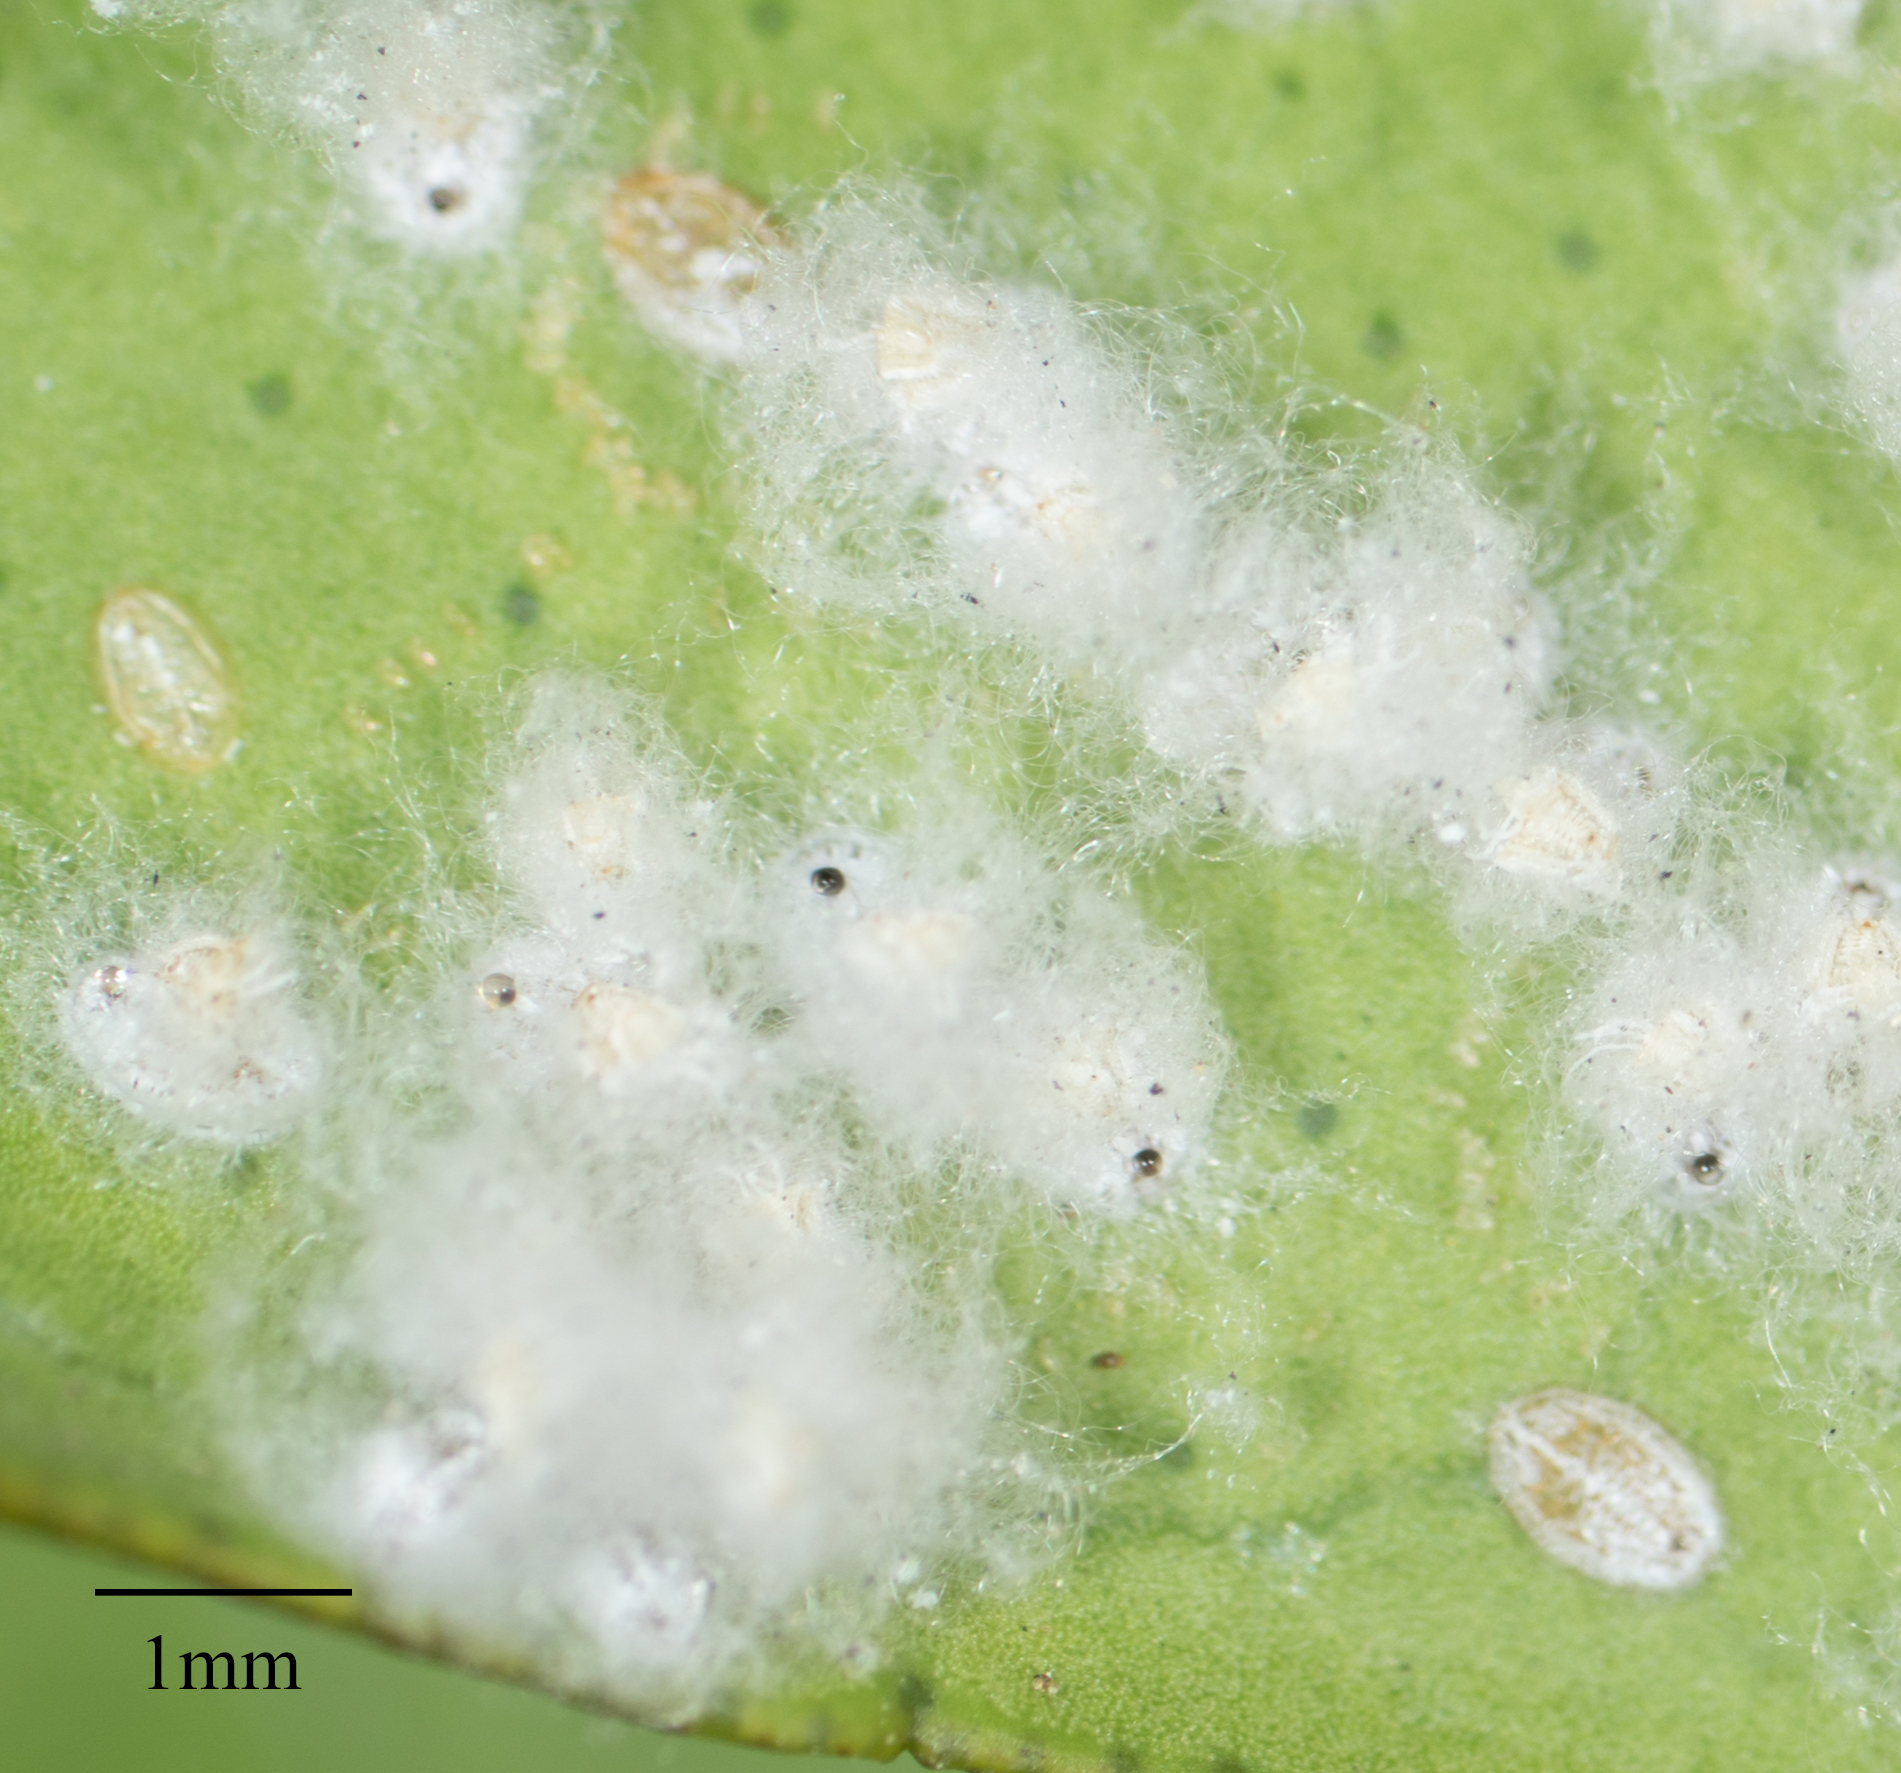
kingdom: Animalia
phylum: Arthropoda
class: Insecta
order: Hemiptera
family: Aleyrodidae
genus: Aleurothrixus
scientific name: Aleurothrixus floccosus
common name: Whitefly
